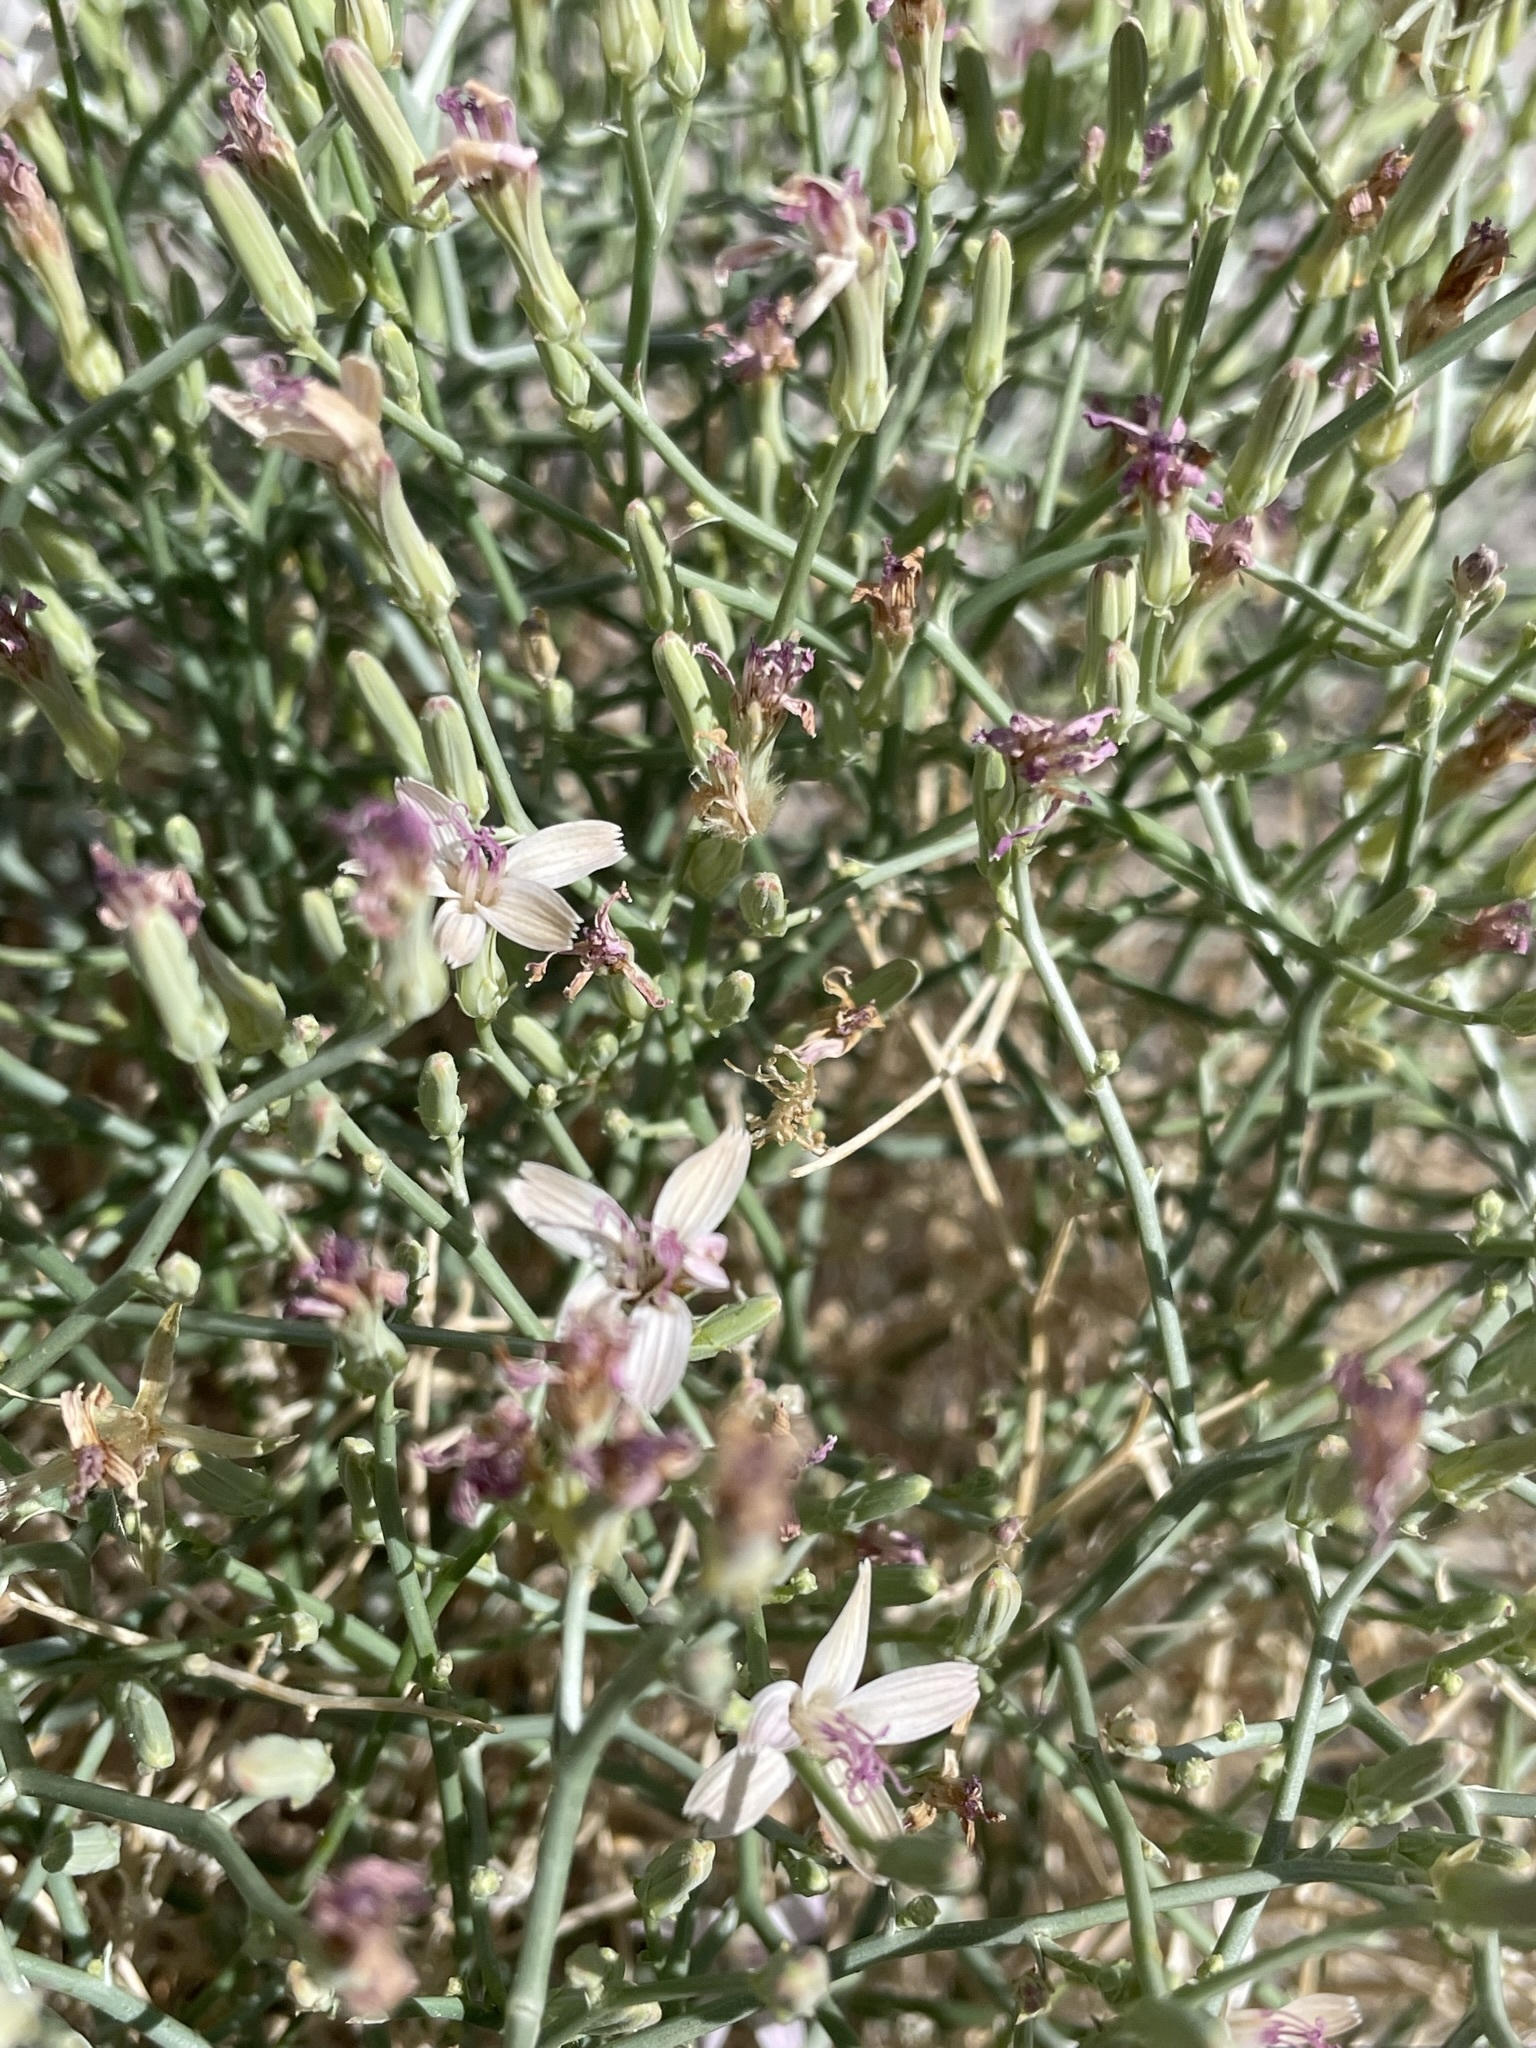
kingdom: Plantae
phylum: Tracheophyta
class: Magnoliopsida
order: Asterales
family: Asteraceae
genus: Stephanomeria
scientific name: Stephanomeria pauciflora
